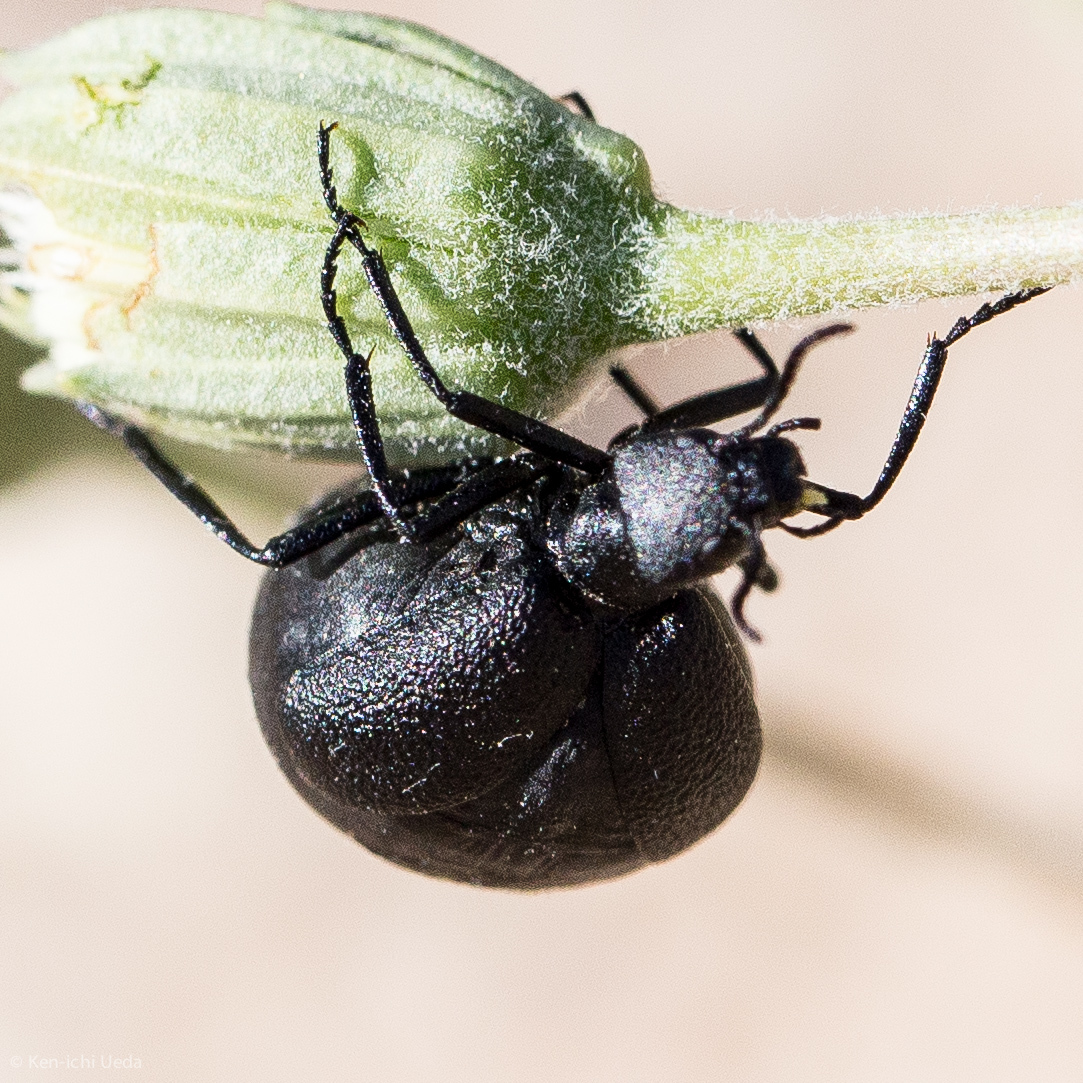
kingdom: Animalia
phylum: Arthropoda
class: Insecta
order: Coleoptera
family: Meloidae
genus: Cordylospasta
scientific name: Cordylospasta opaca
